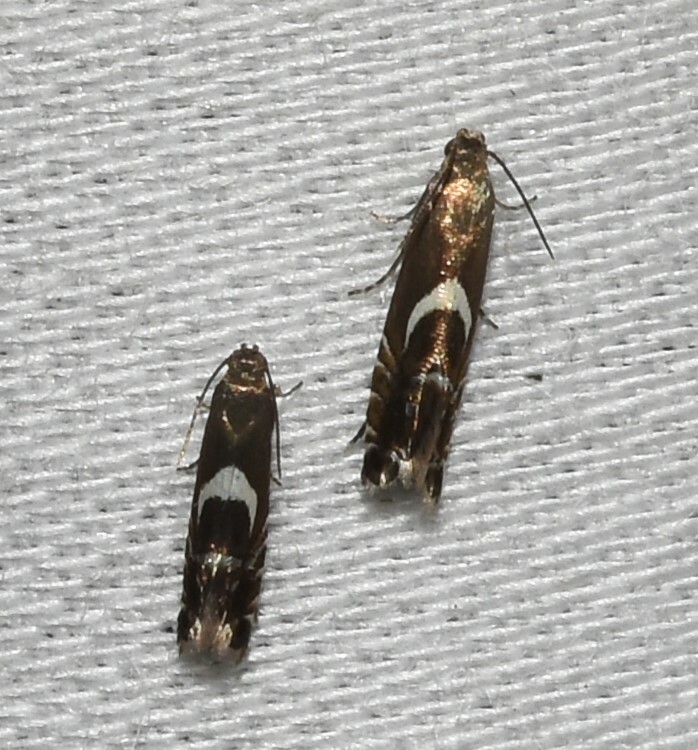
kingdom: Animalia
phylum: Arthropoda
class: Insecta
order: Lepidoptera
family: Glyphipterigidae
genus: Glyphipterix
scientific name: Glyphipterix Diploschizia impigritella
